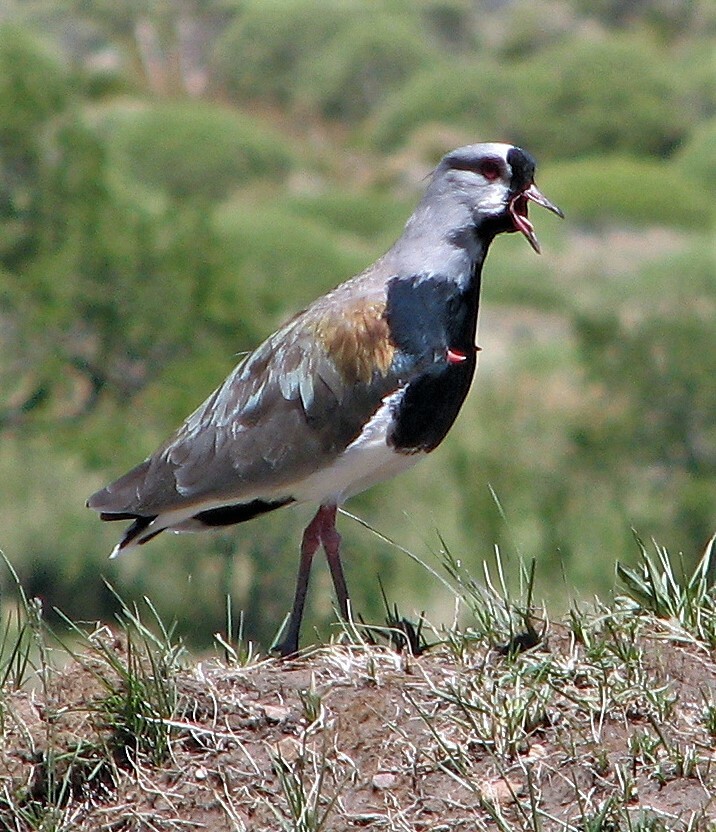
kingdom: Animalia
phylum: Chordata
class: Aves
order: Charadriiformes
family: Charadriidae
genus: Vanellus
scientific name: Vanellus chilensis
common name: Southern lapwing
